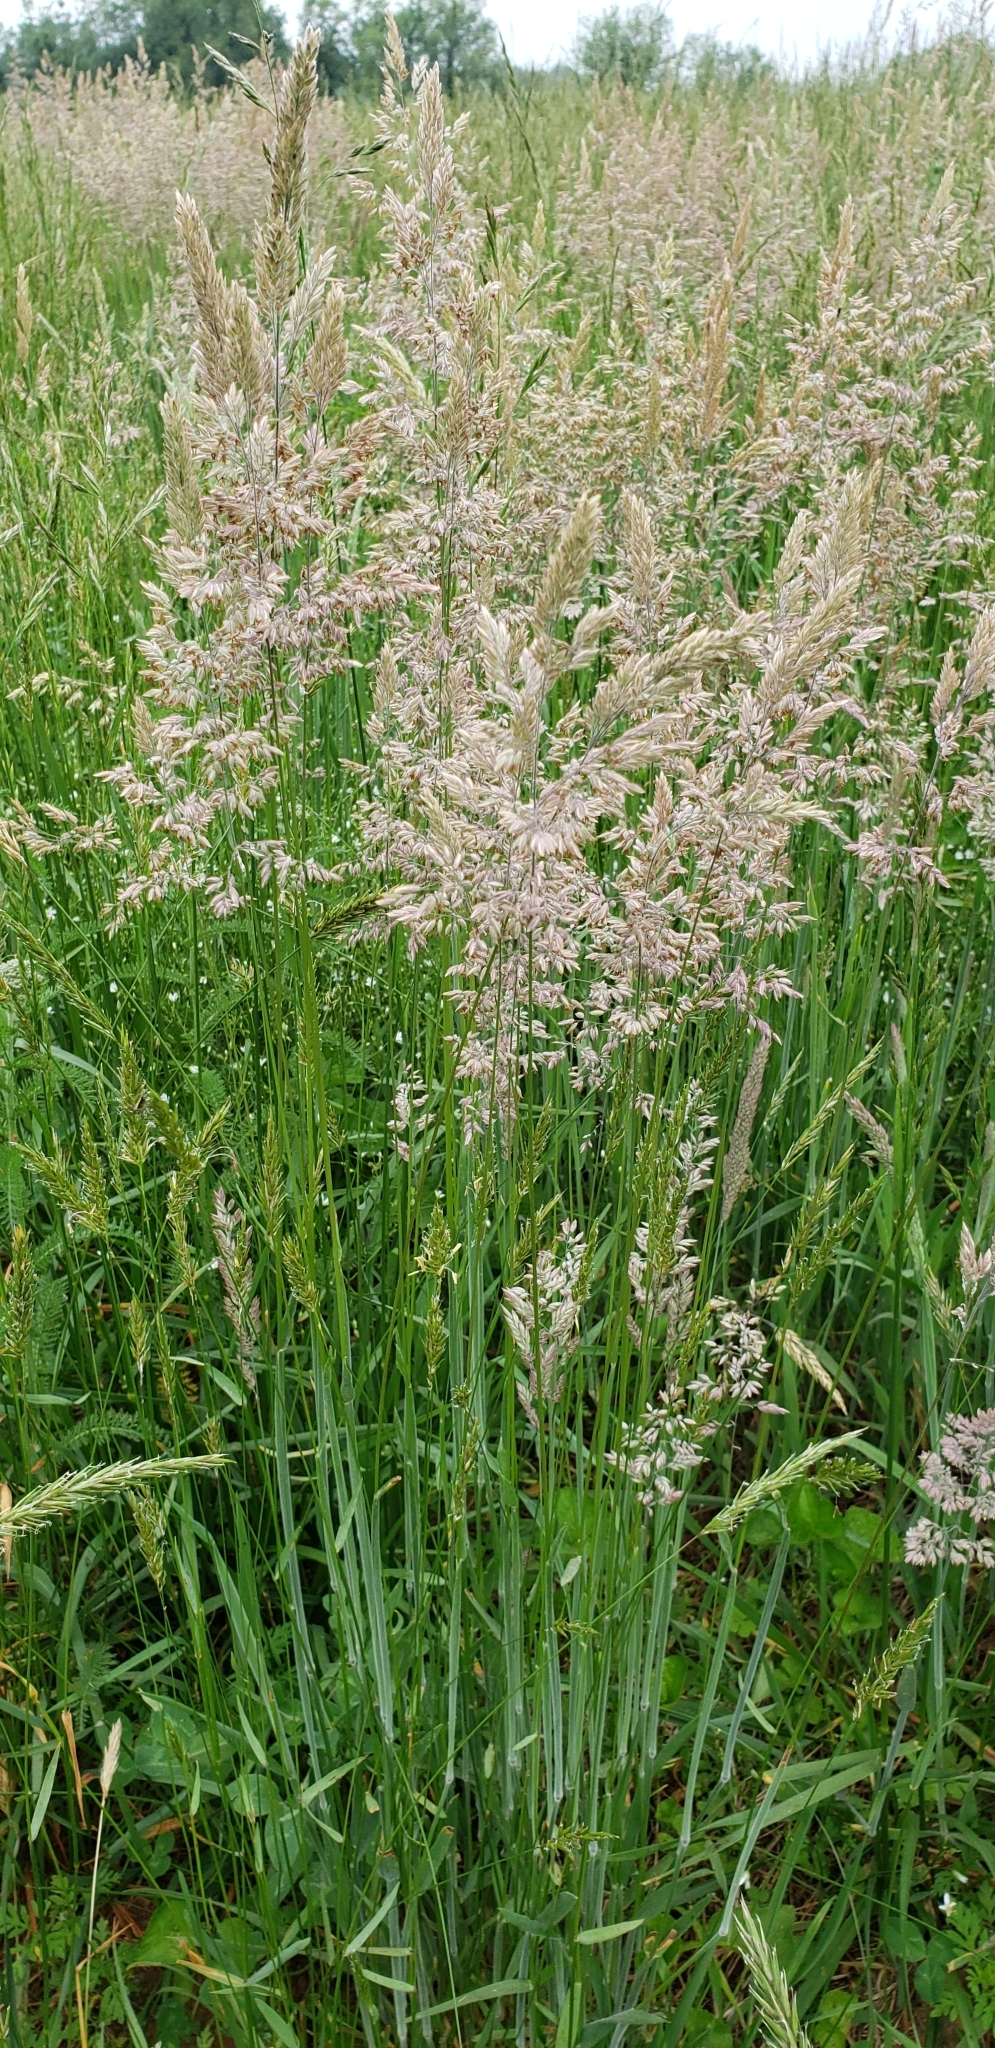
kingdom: Plantae
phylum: Tracheophyta
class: Liliopsida
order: Poales
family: Poaceae
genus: Holcus
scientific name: Holcus lanatus
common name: Yorkshire-fog
